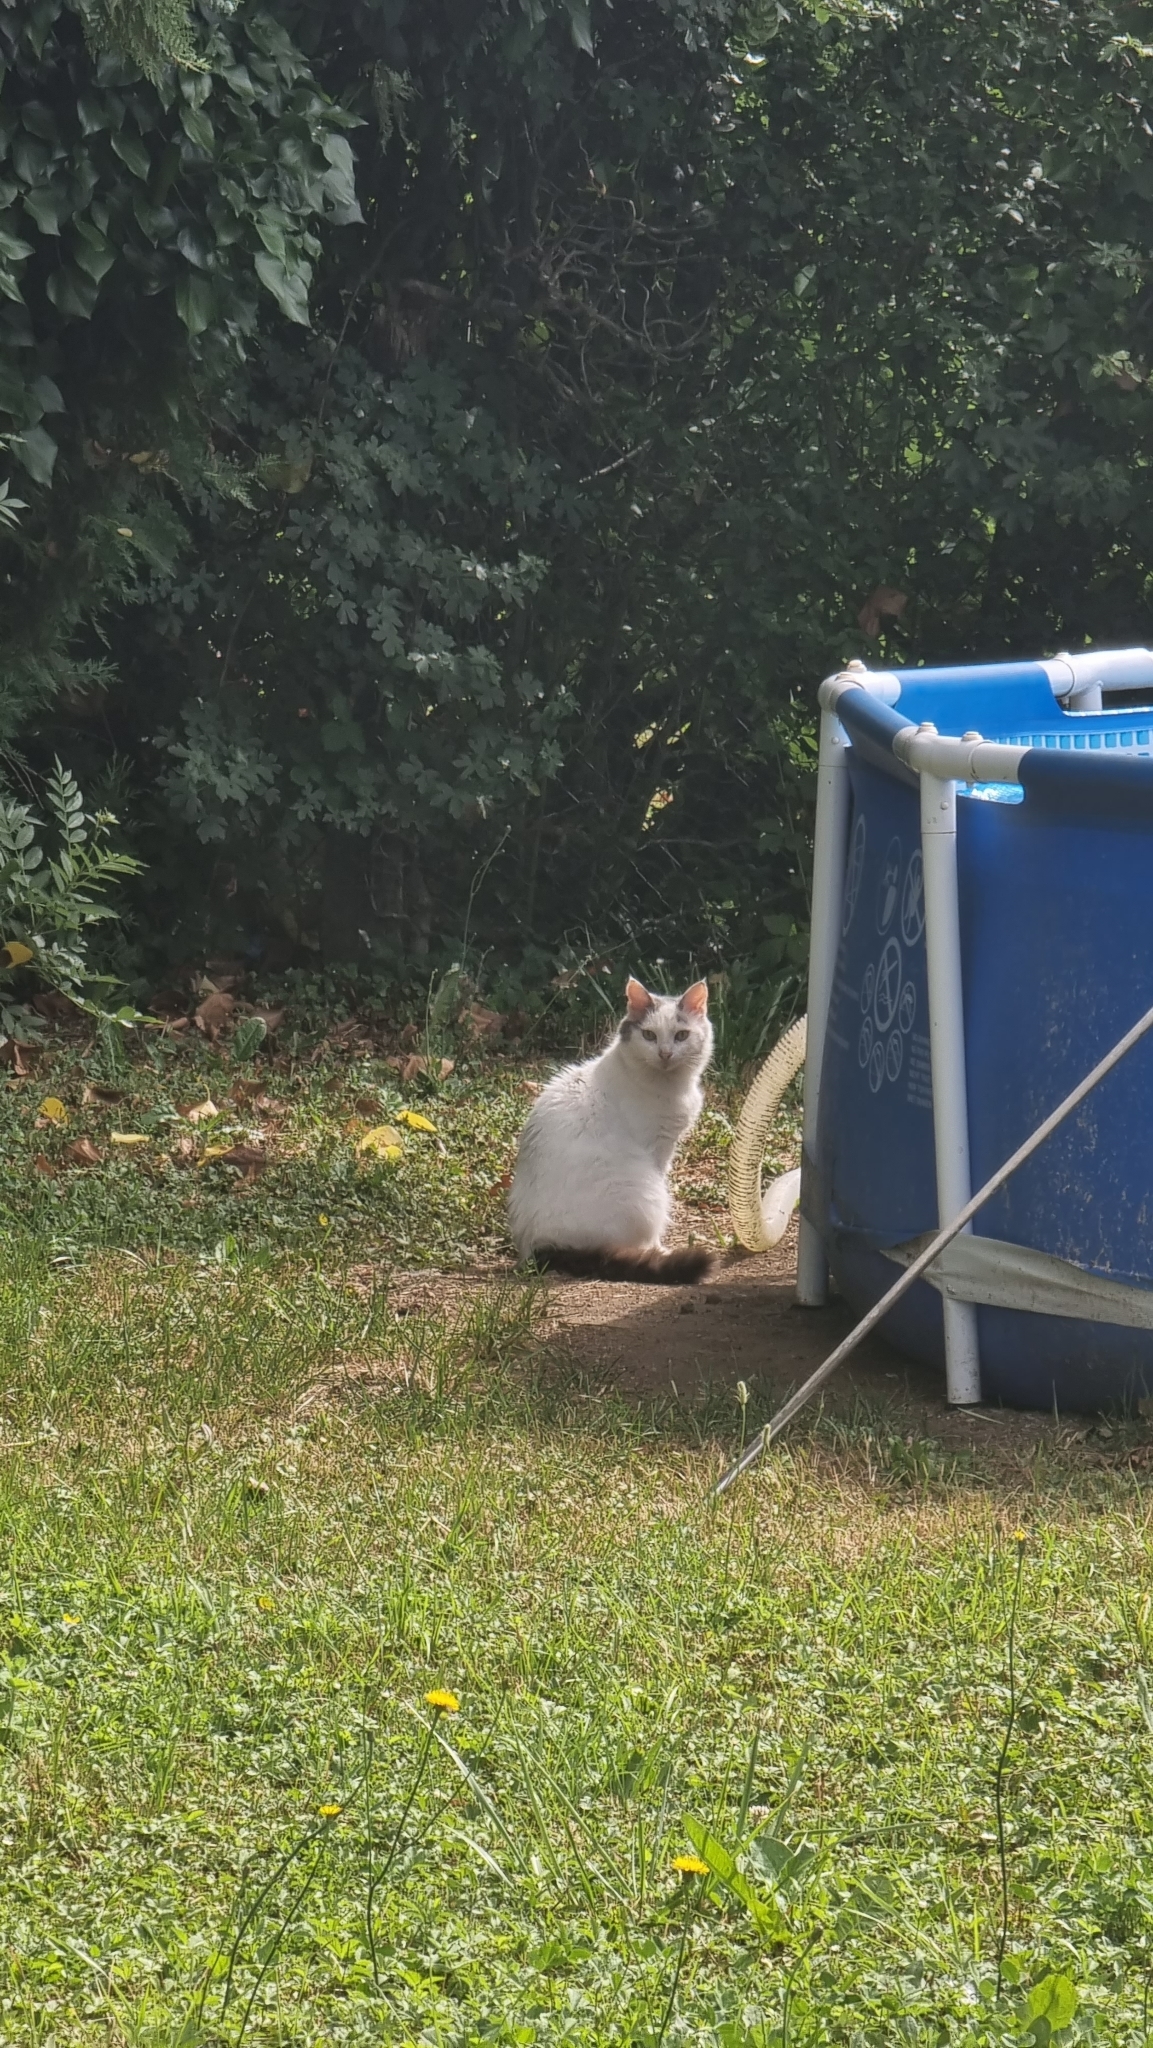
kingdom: Animalia
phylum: Chordata
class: Mammalia
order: Carnivora
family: Felidae
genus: Felis
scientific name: Felis catus
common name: Domestic cat
